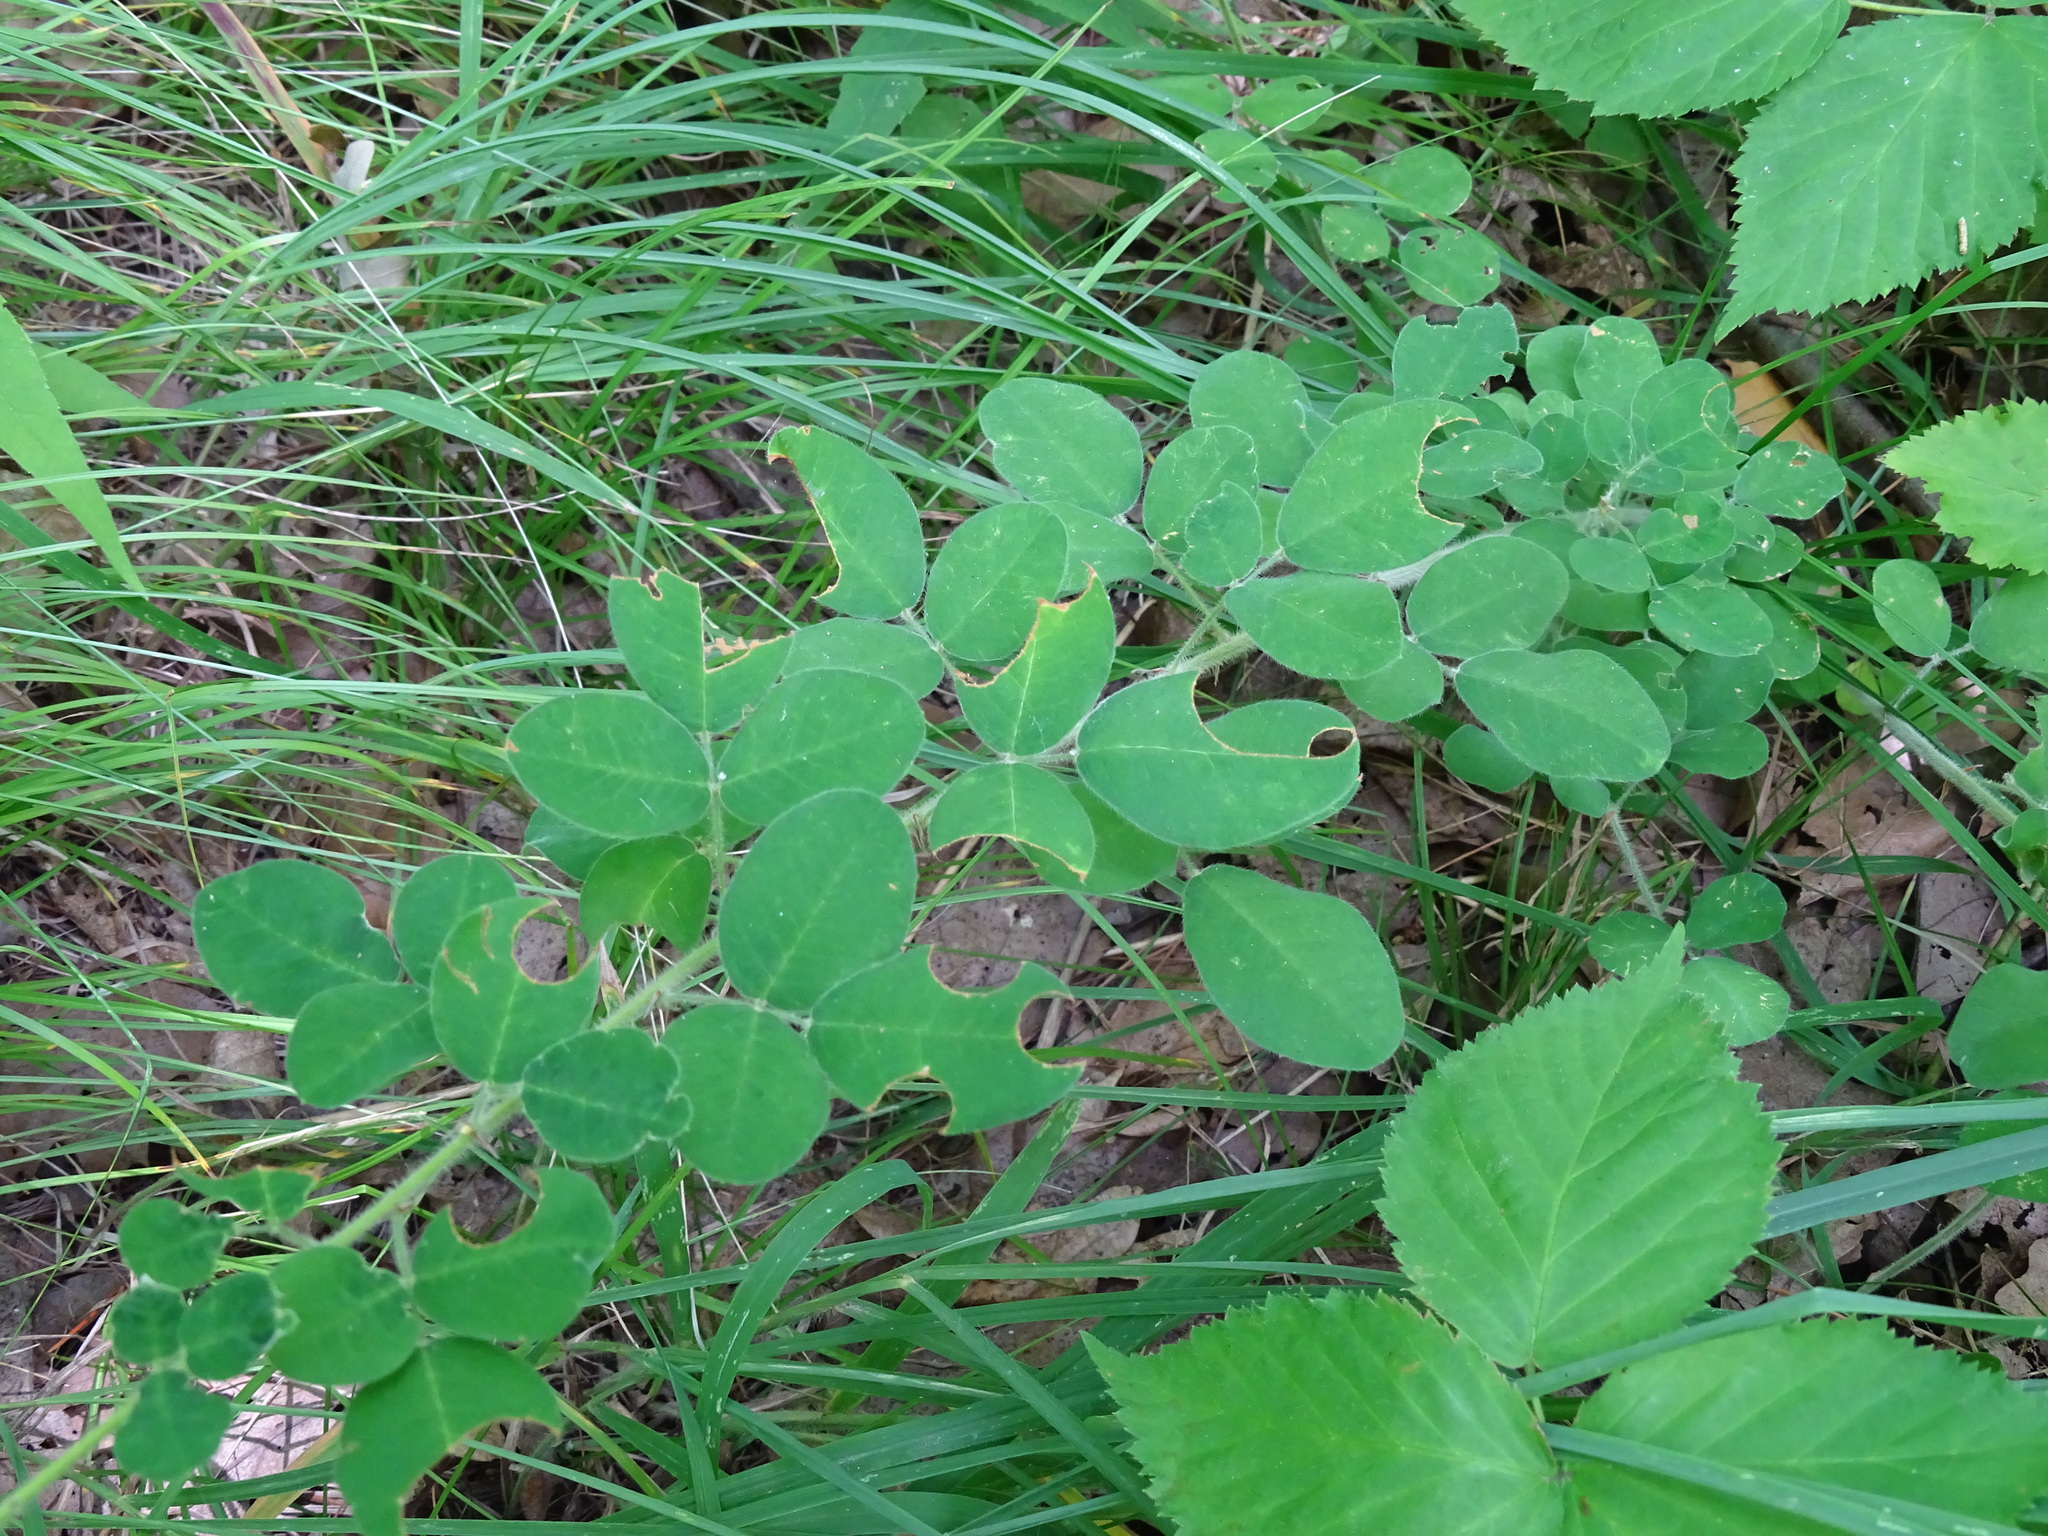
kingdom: Plantae
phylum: Tracheophyta
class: Magnoliopsida
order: Fabales
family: Fabaceae
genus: Lespedeza
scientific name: Lespedeza hirta
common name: Hairy lespedeza
